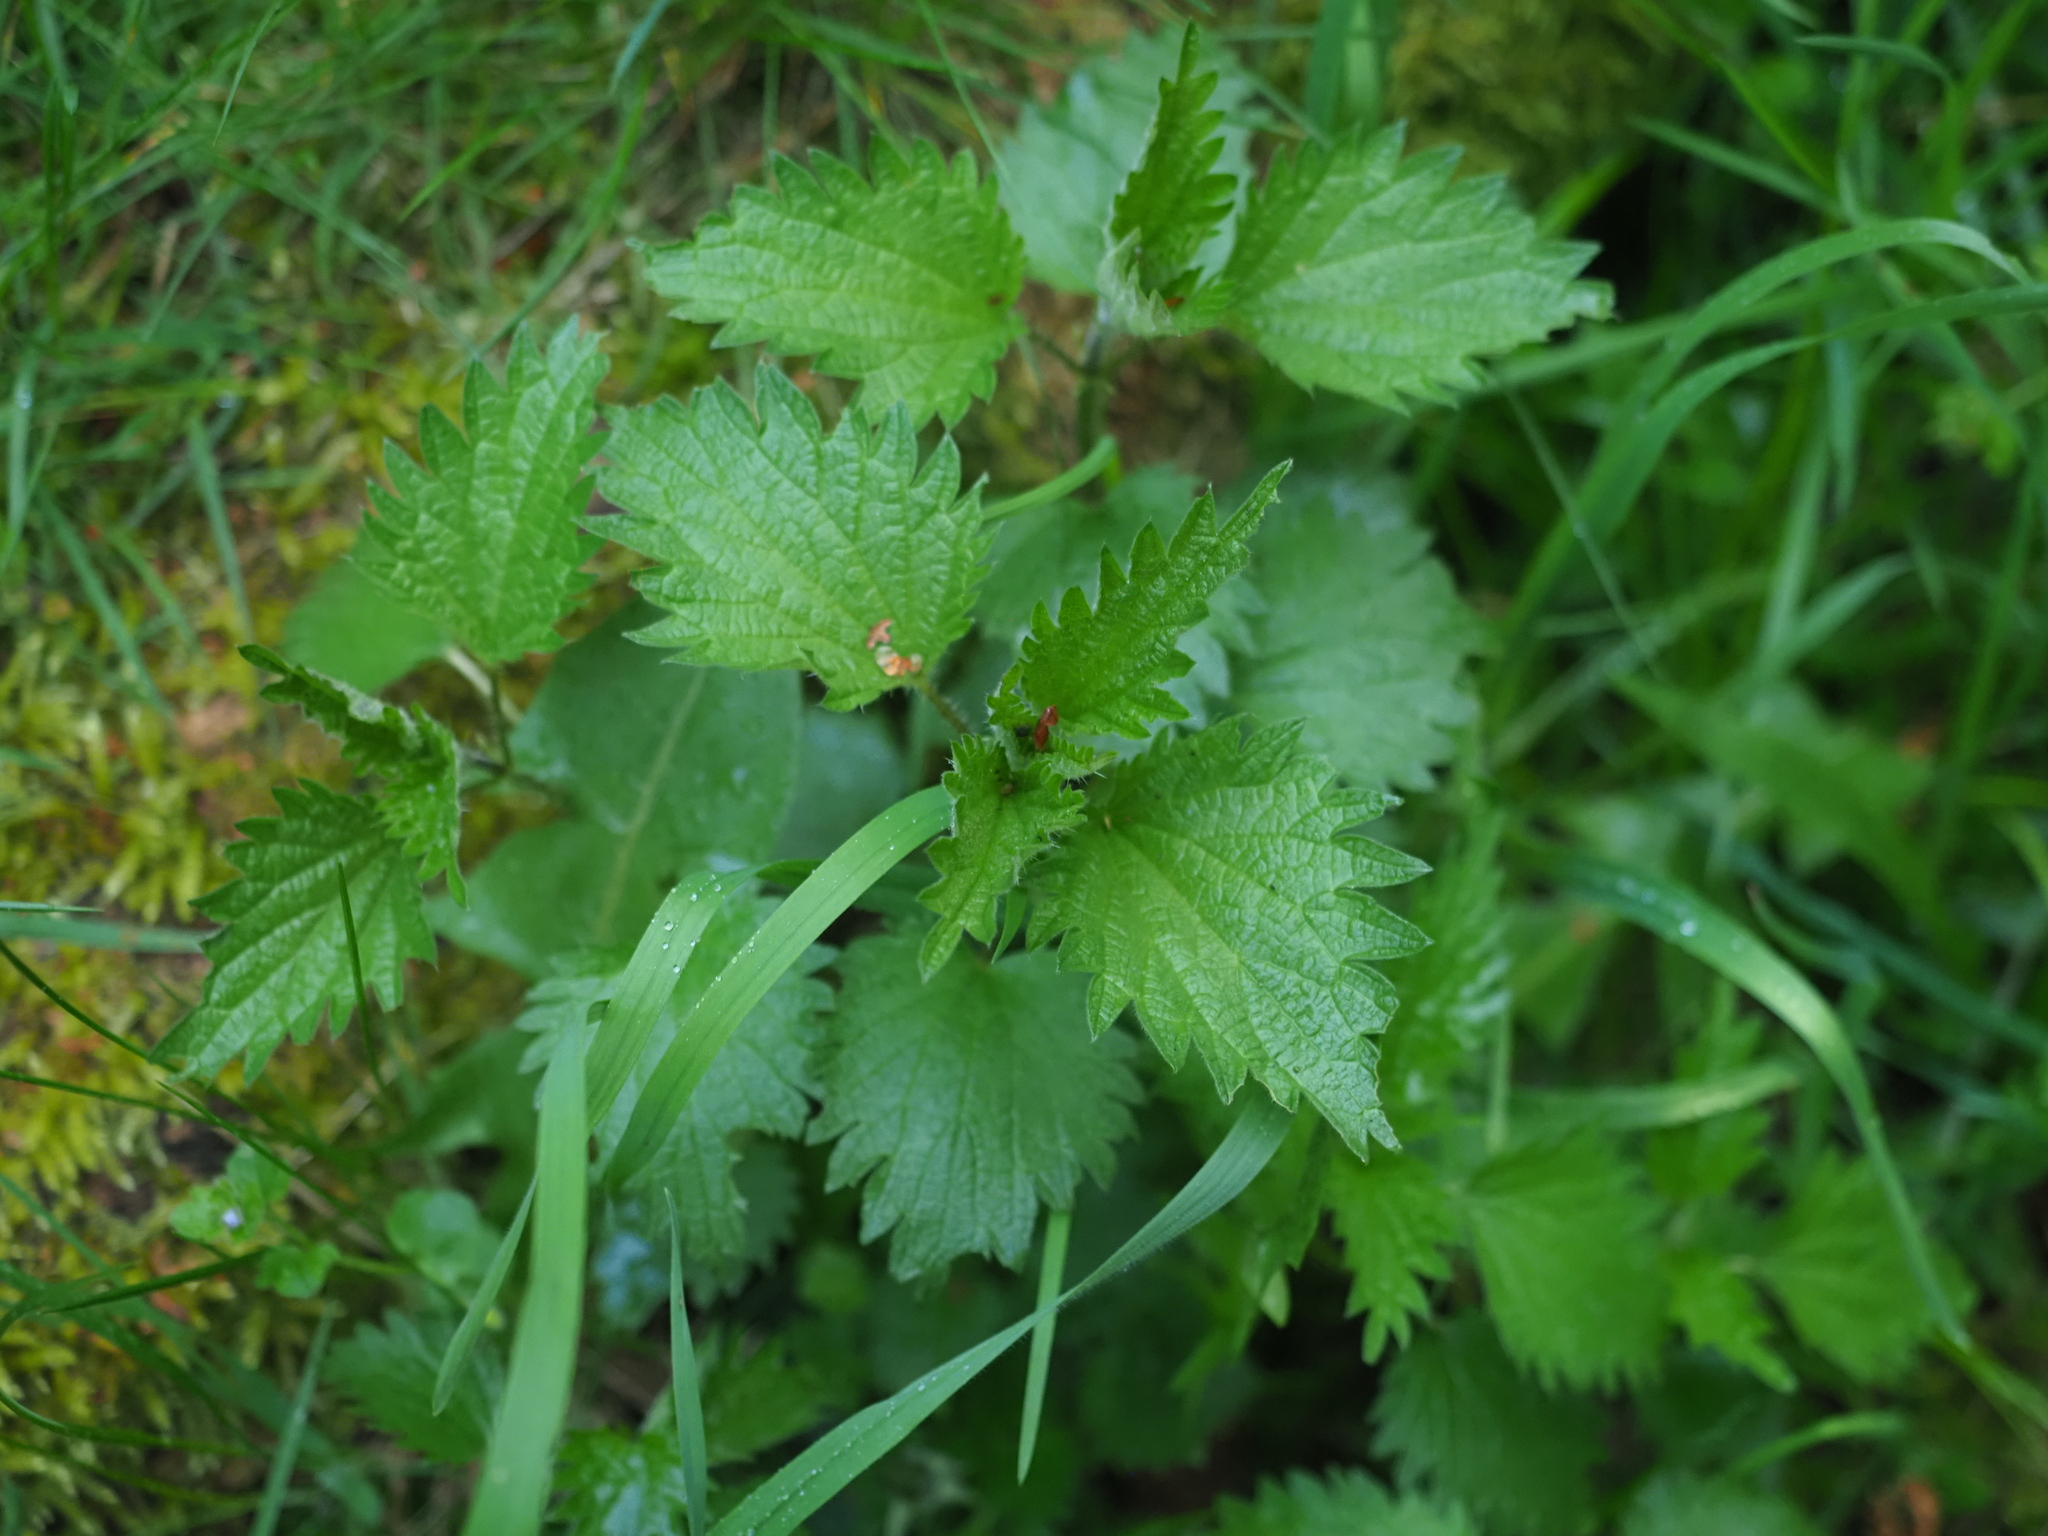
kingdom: Plantae
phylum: Tracheophyta
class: Magnoliopsida
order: Rosales
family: Urticaceae
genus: Urtica
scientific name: Urtica dioica
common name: Common nettle
